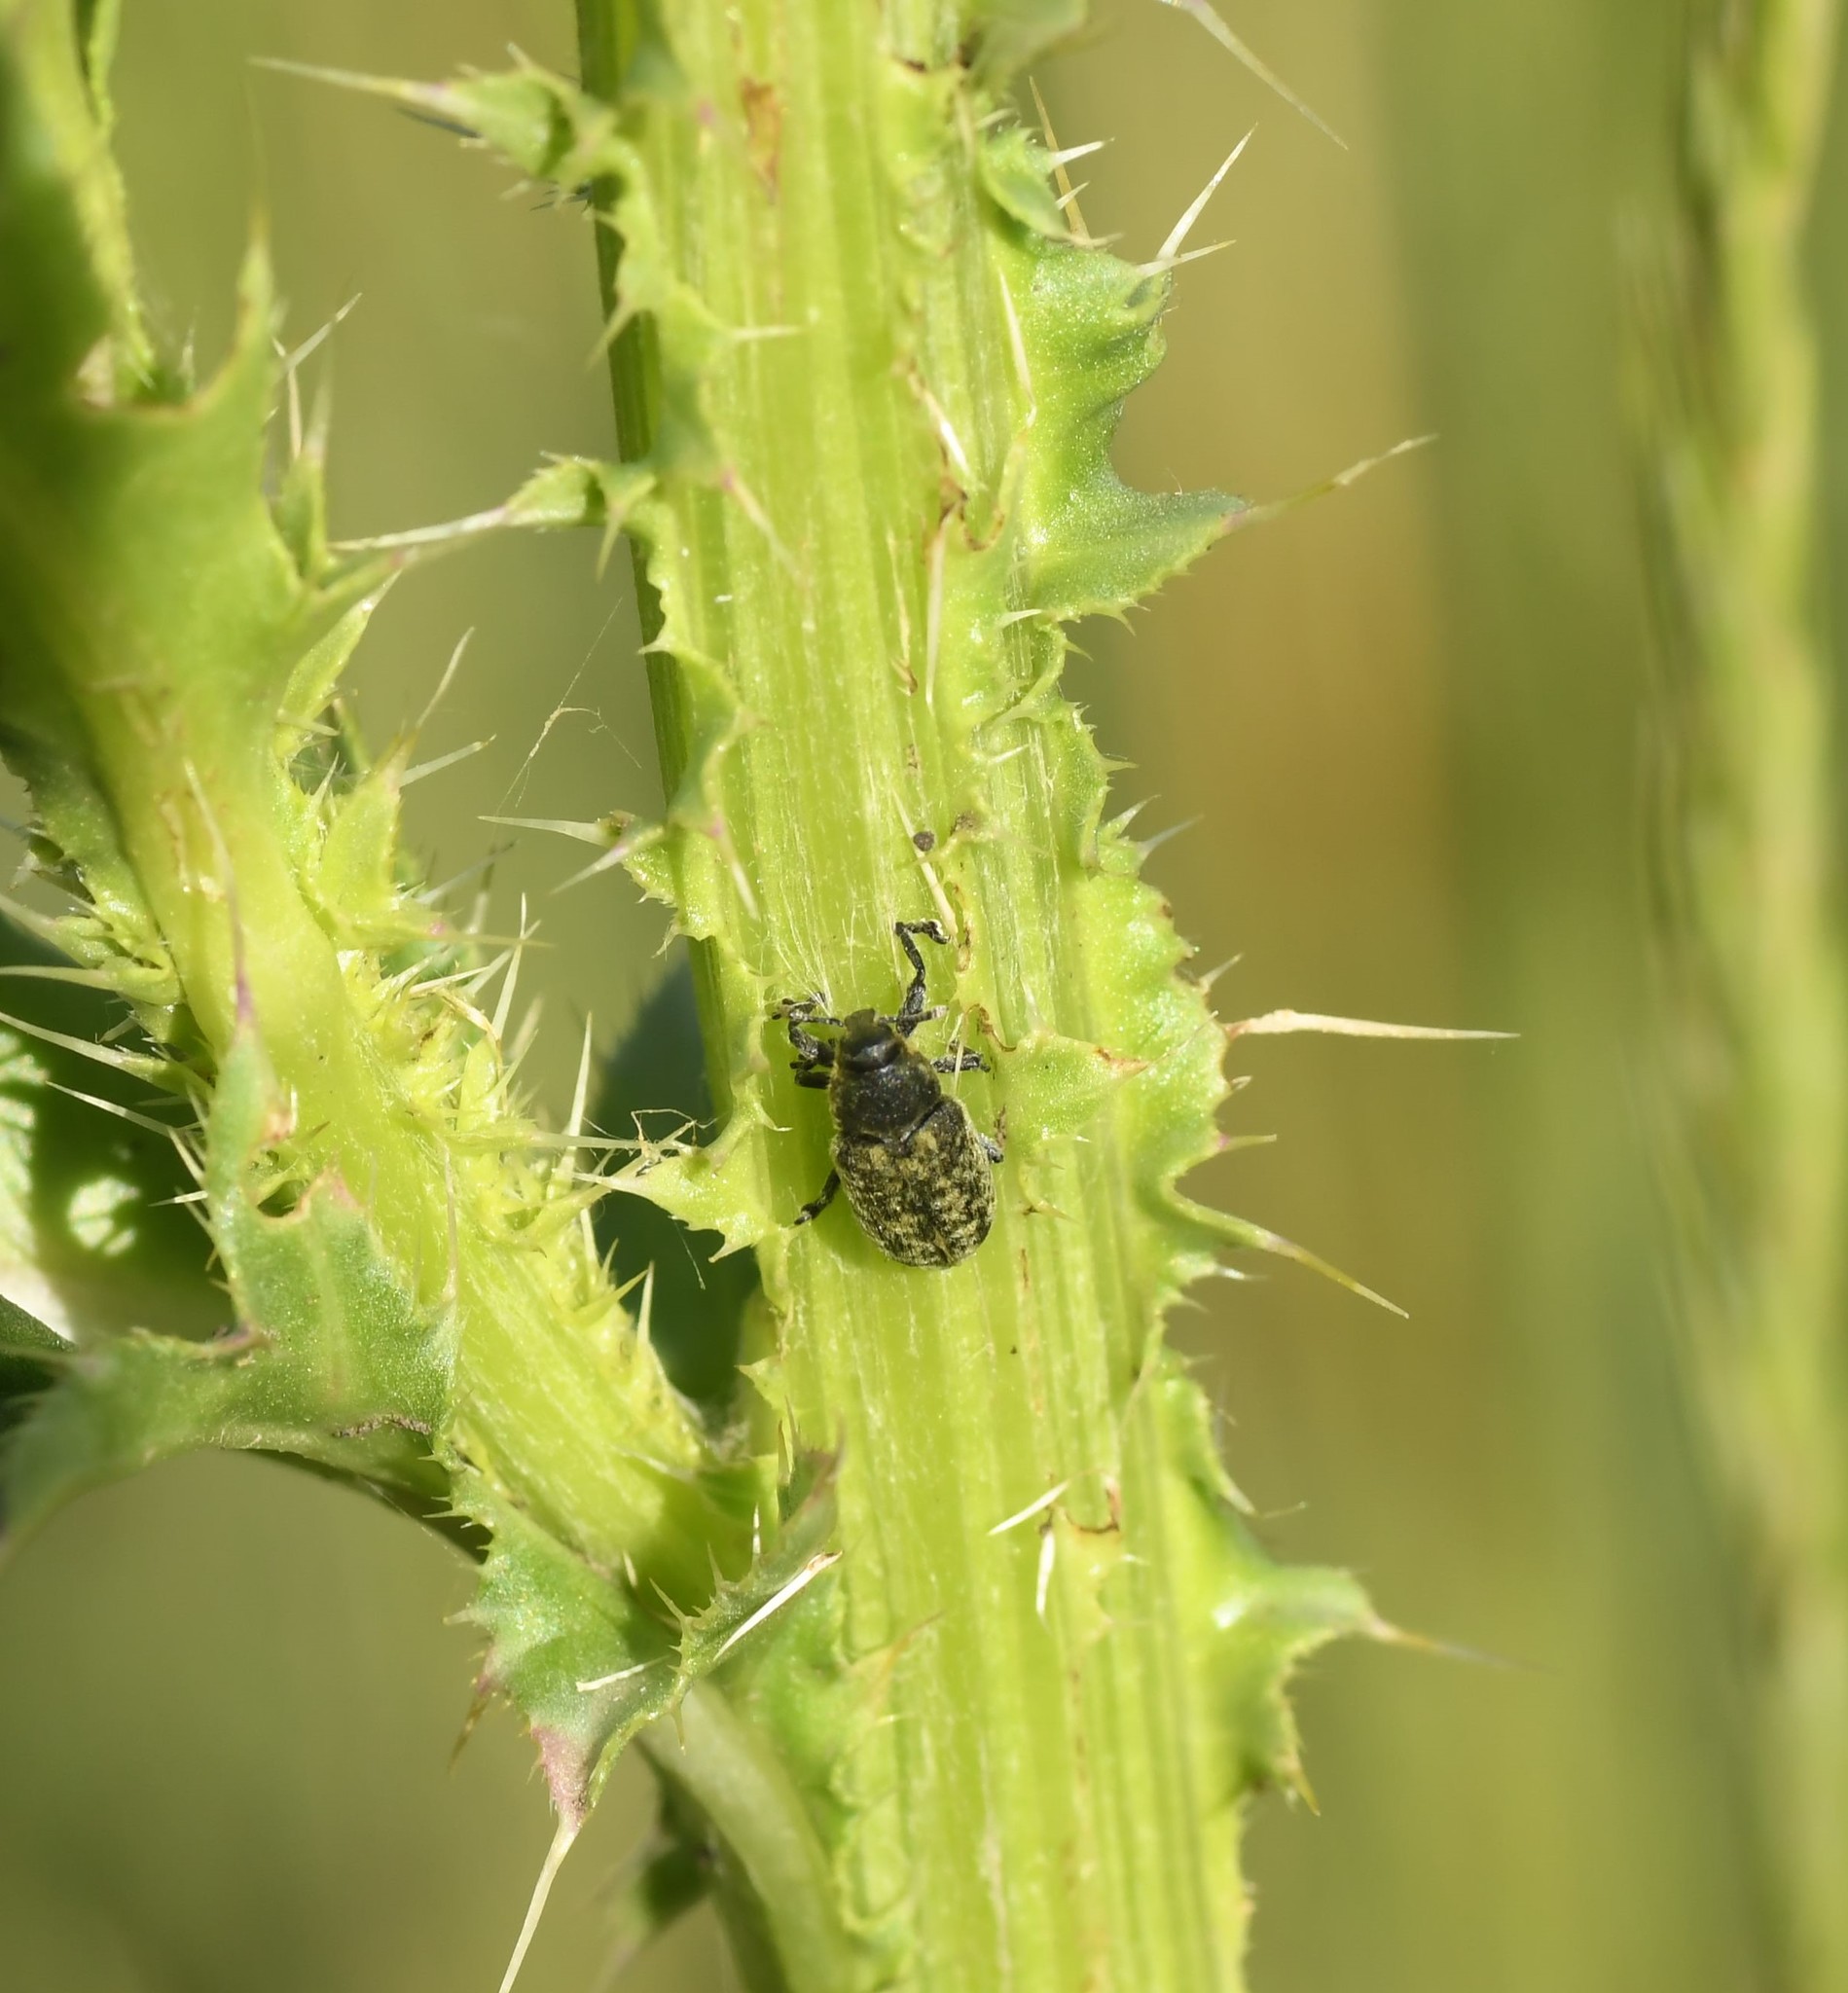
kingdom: Animalia
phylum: Arthropoda
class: Insecta
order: Coleoptera
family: Curculionidae
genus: Rhinocyllus
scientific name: Rhinocyllus conicus
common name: Weevil
